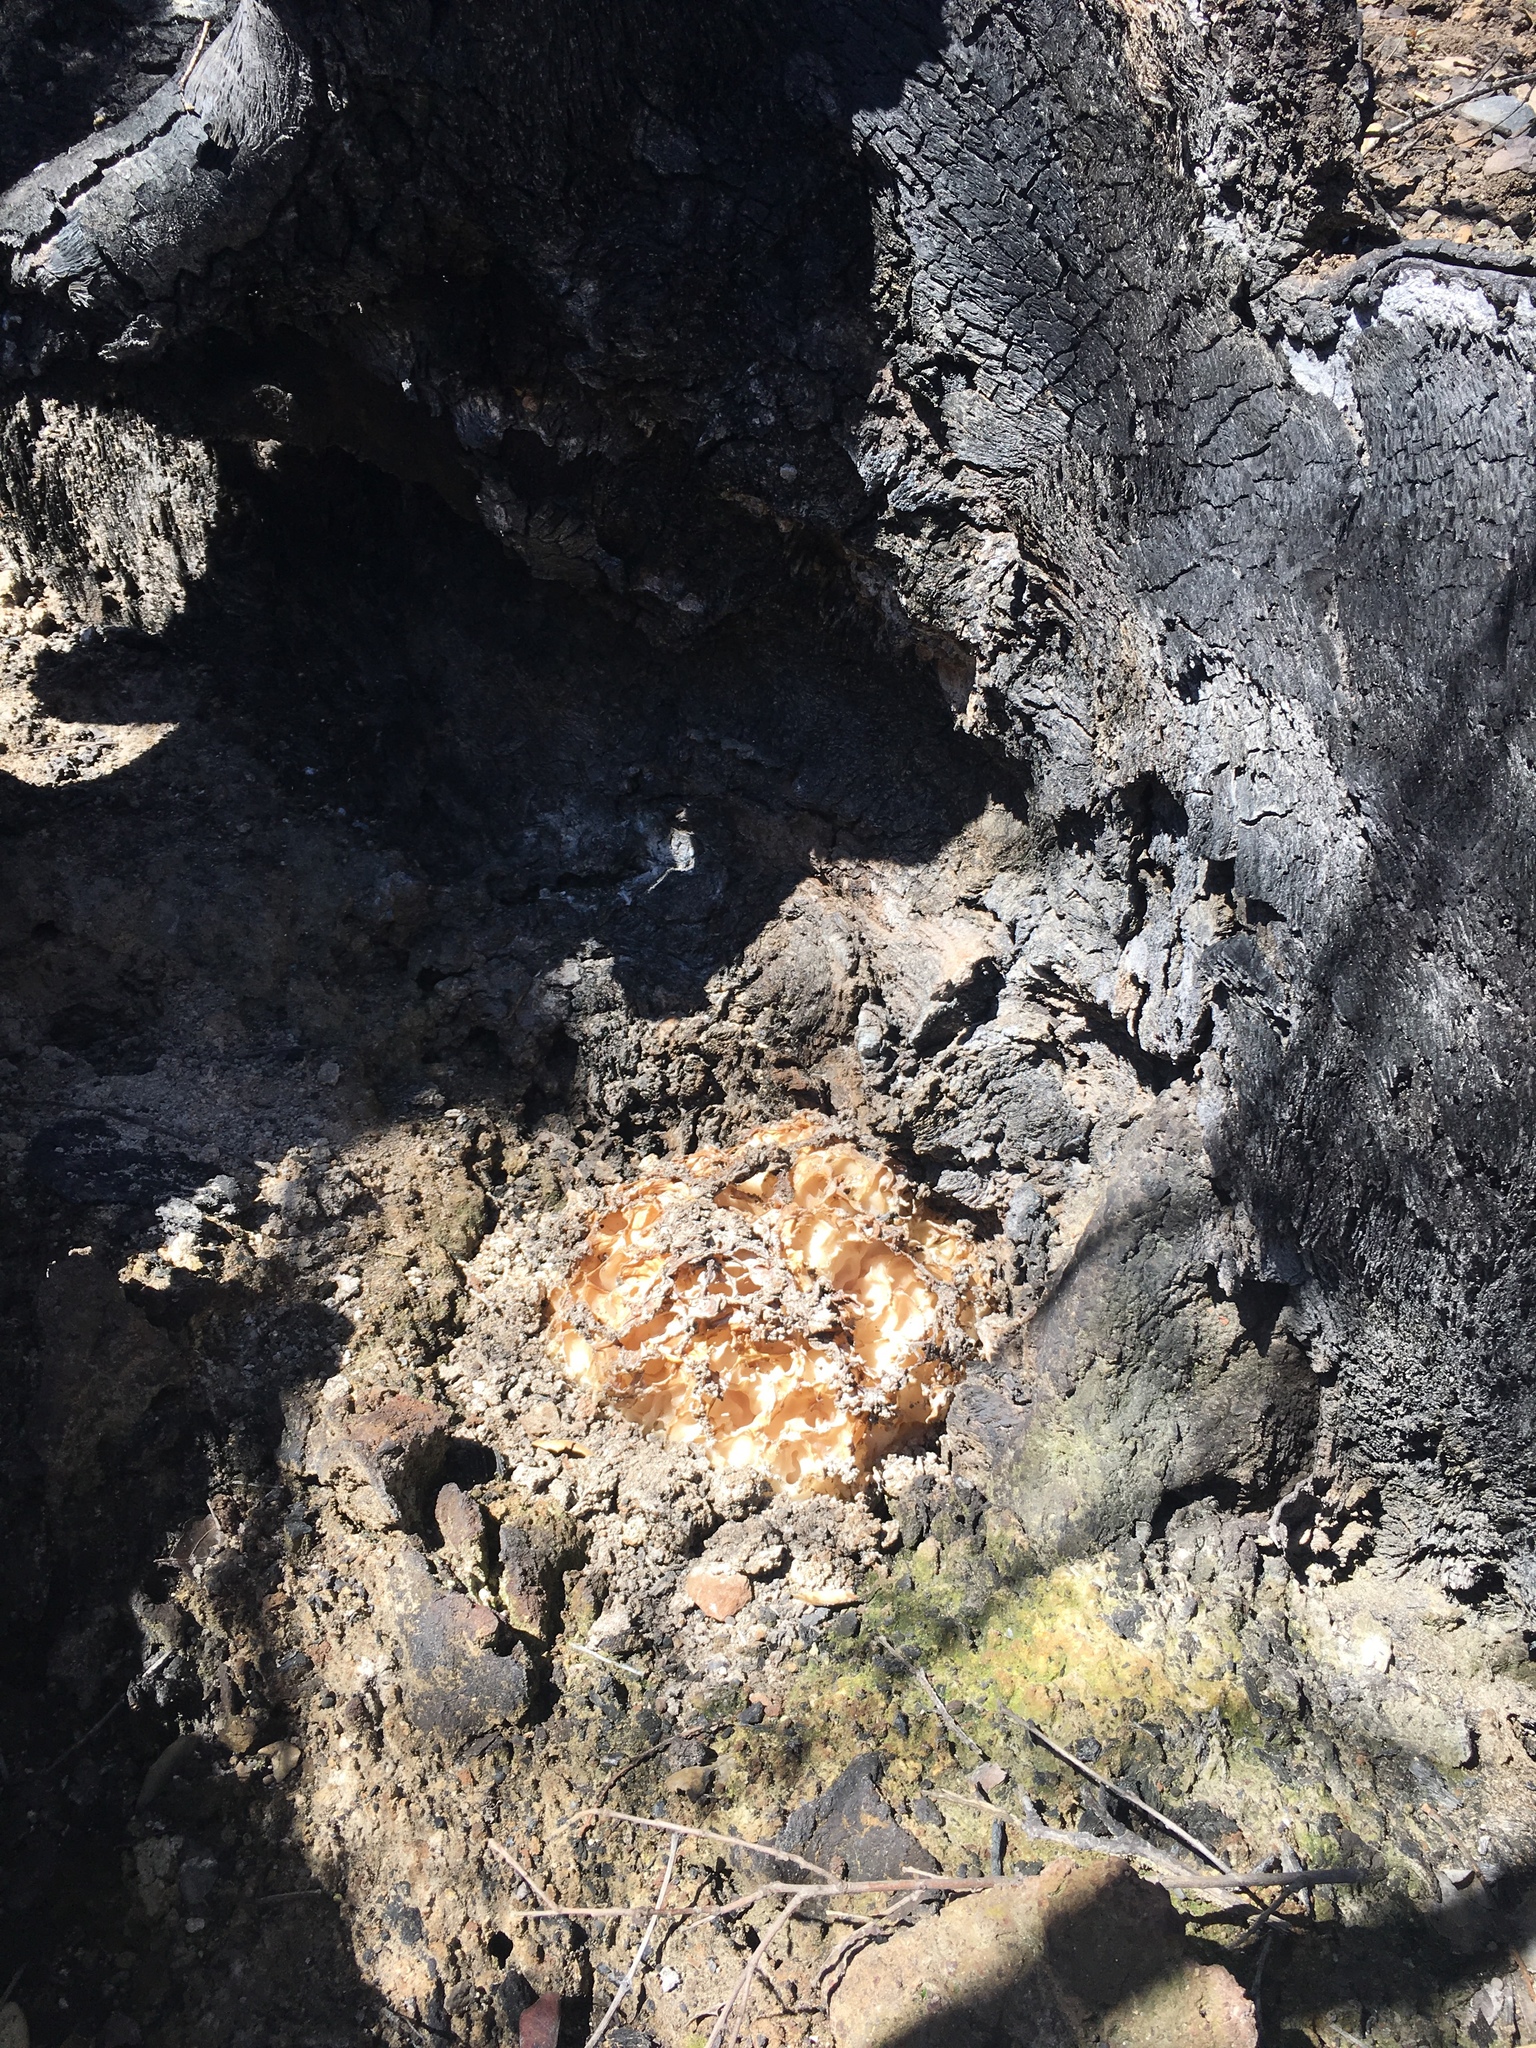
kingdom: Fungi
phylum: Ascomycota
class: Pezizomycetes
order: Pezizales
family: Pezizaceae
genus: Daleomyces
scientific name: Daleomyces phillipsii
